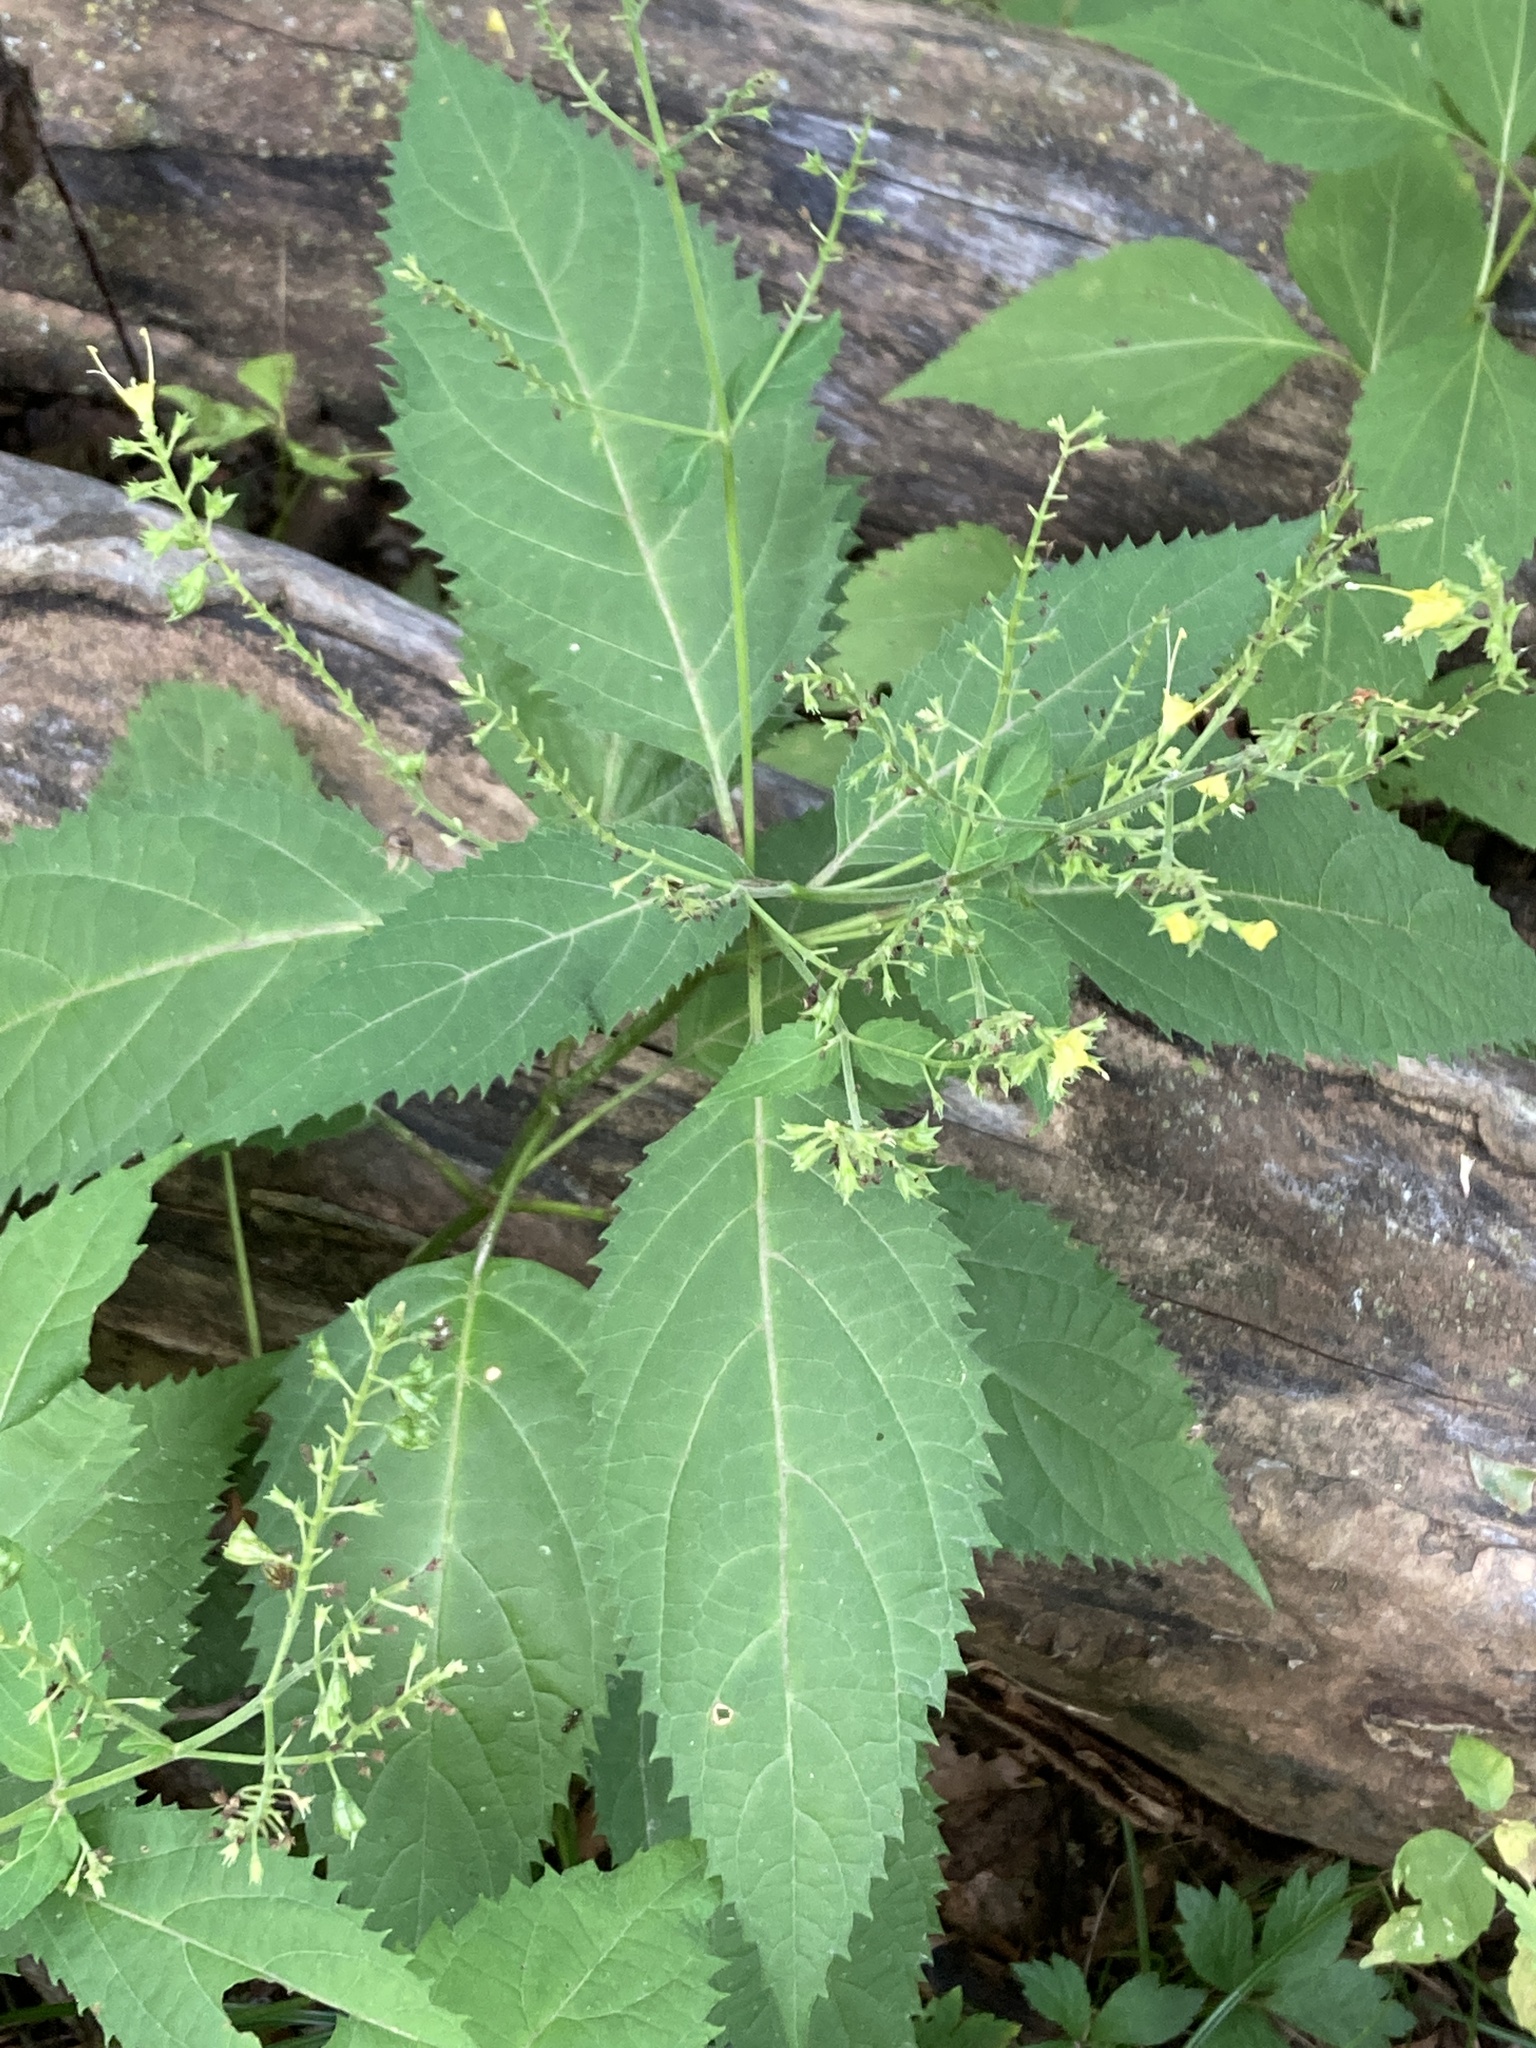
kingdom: Plantae
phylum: Tracheophyta
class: Magnoliopsida
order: Lamiales
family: Lamiaceae
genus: Collinsonia
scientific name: Collinsonia canadensis
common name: Northern horsebalm
